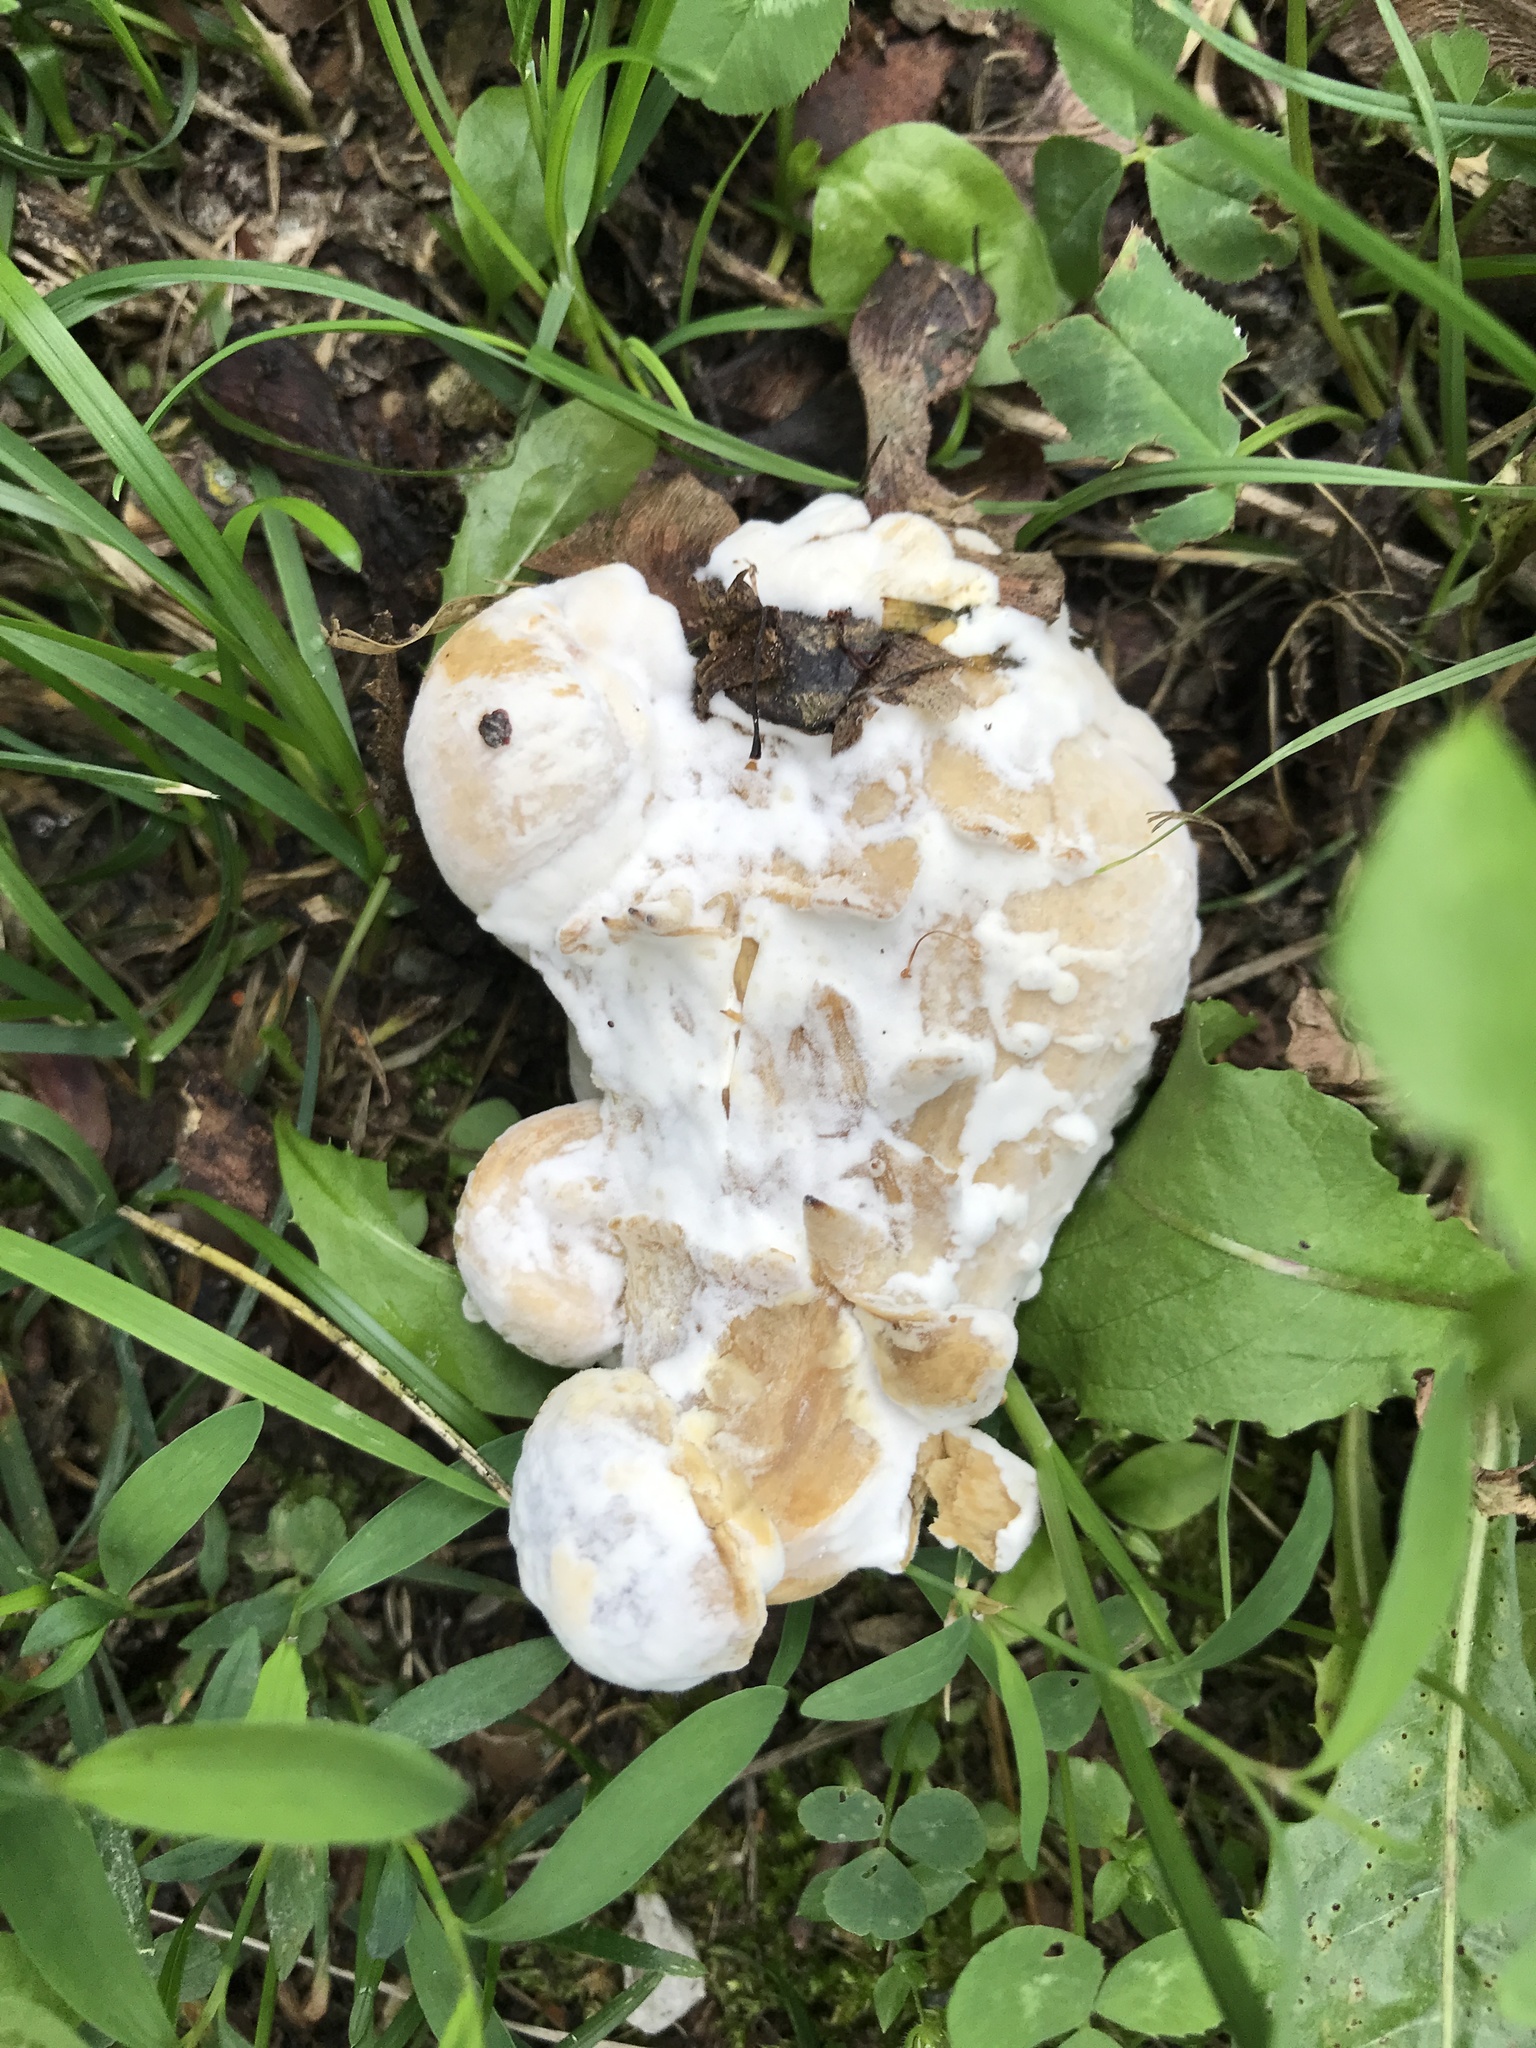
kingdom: Fungi
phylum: Ascomycota
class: Sordariomycetes
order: Hypocreales
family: Hypocreaceae
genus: Hypomyces
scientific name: Hypomyces chrysospermus
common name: Bolete mould
